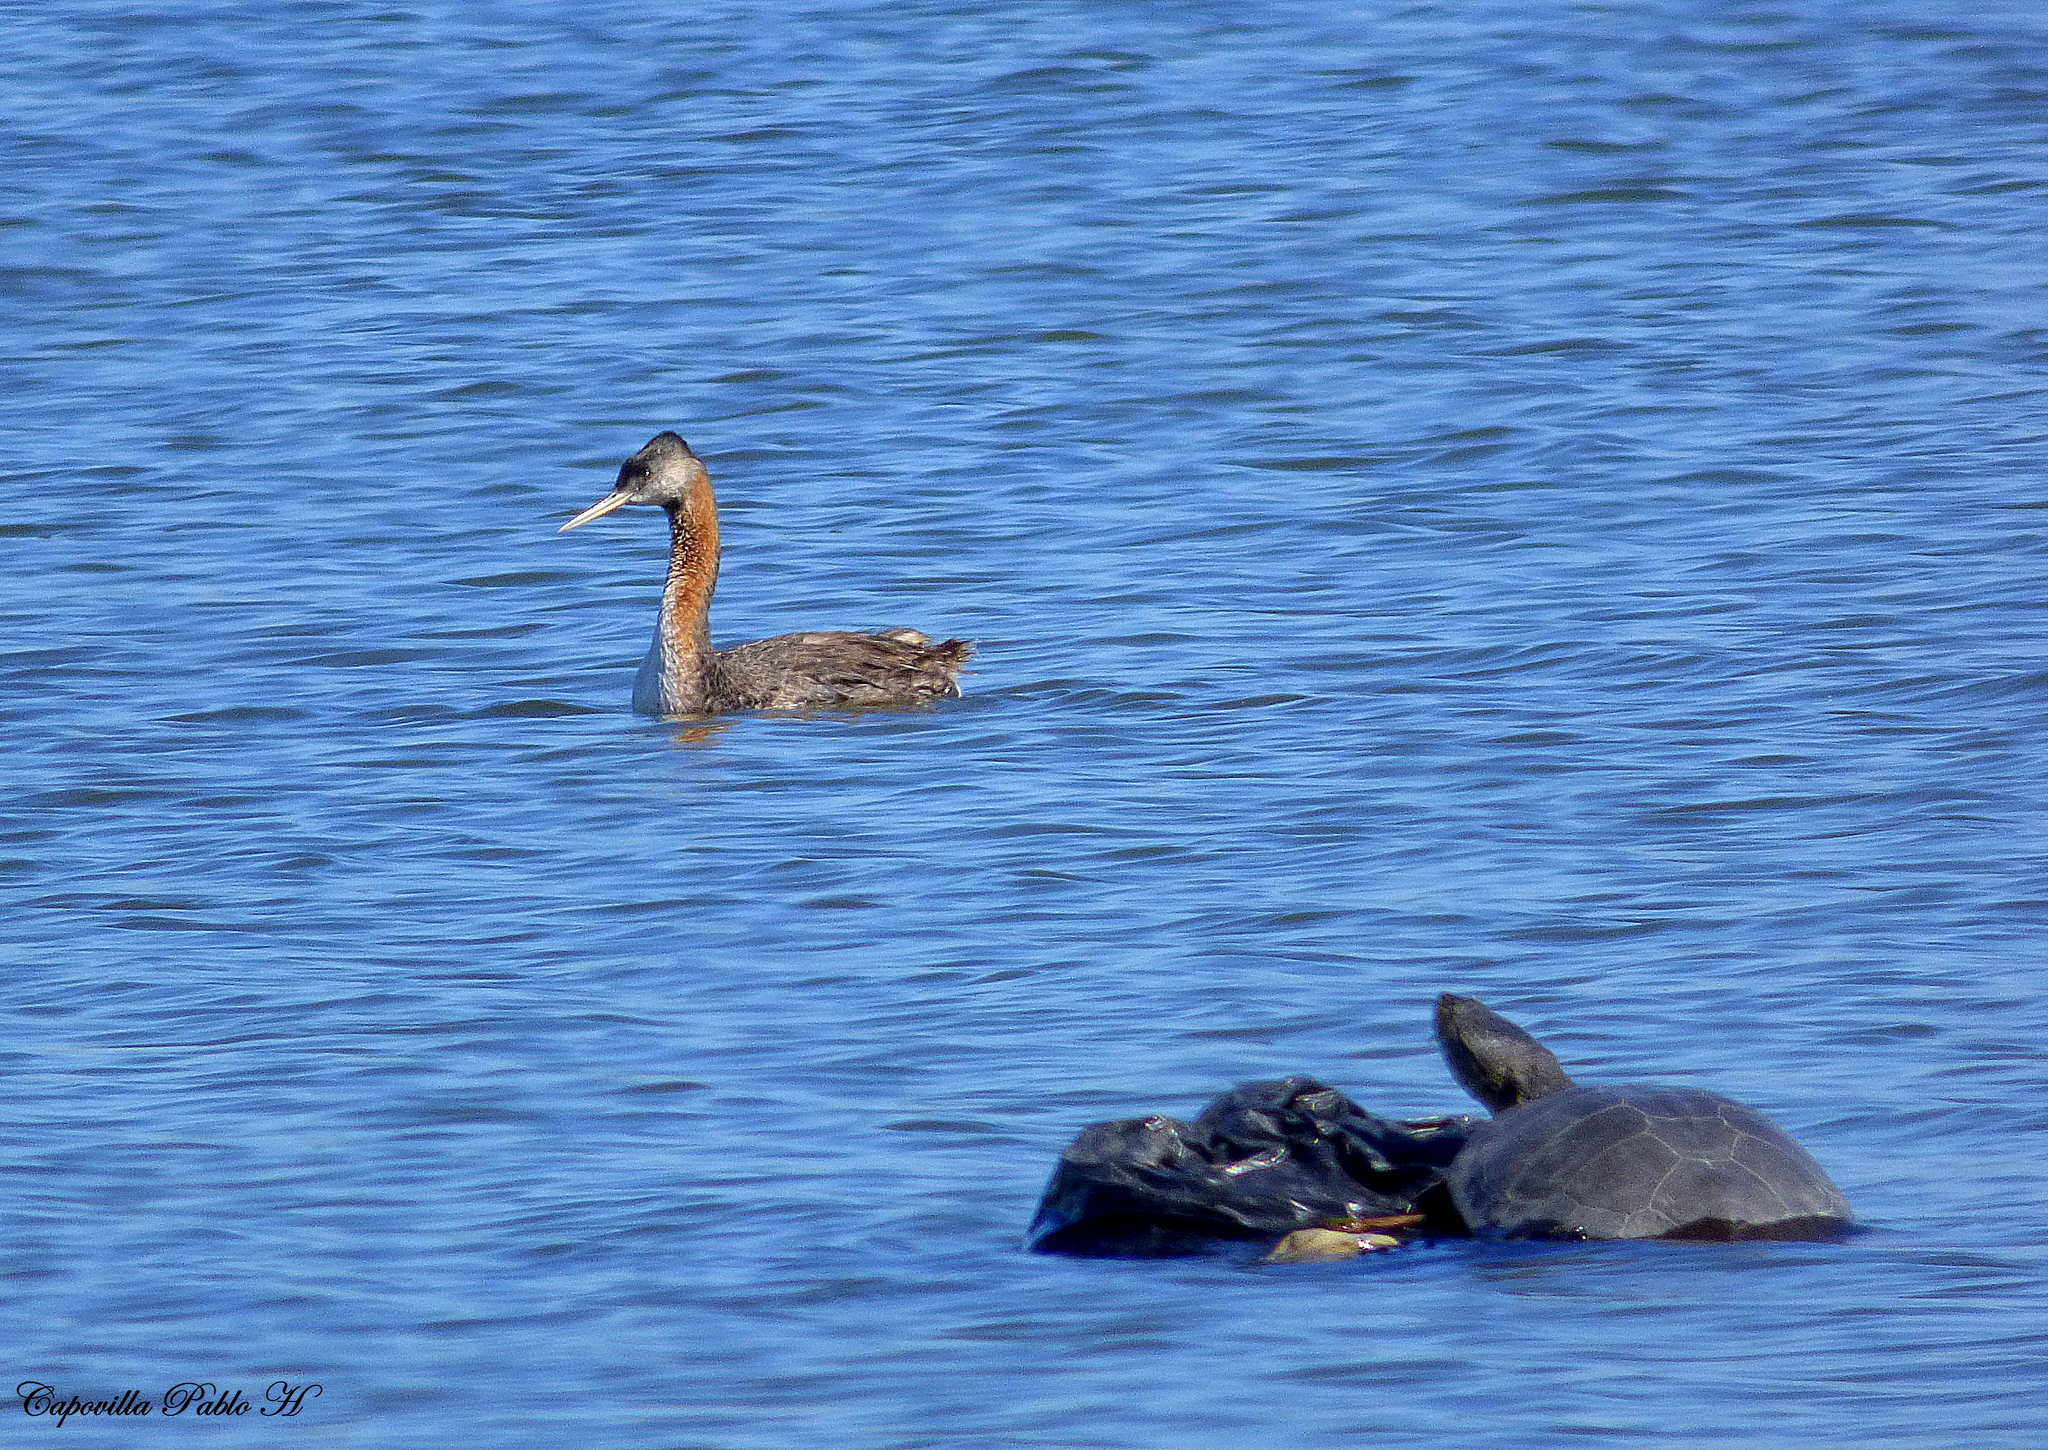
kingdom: Animalia
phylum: Chordata
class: Aves
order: Podicipediformes
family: Podicipedidae
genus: Podiceps
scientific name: Podiceps major
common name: Great grebe
